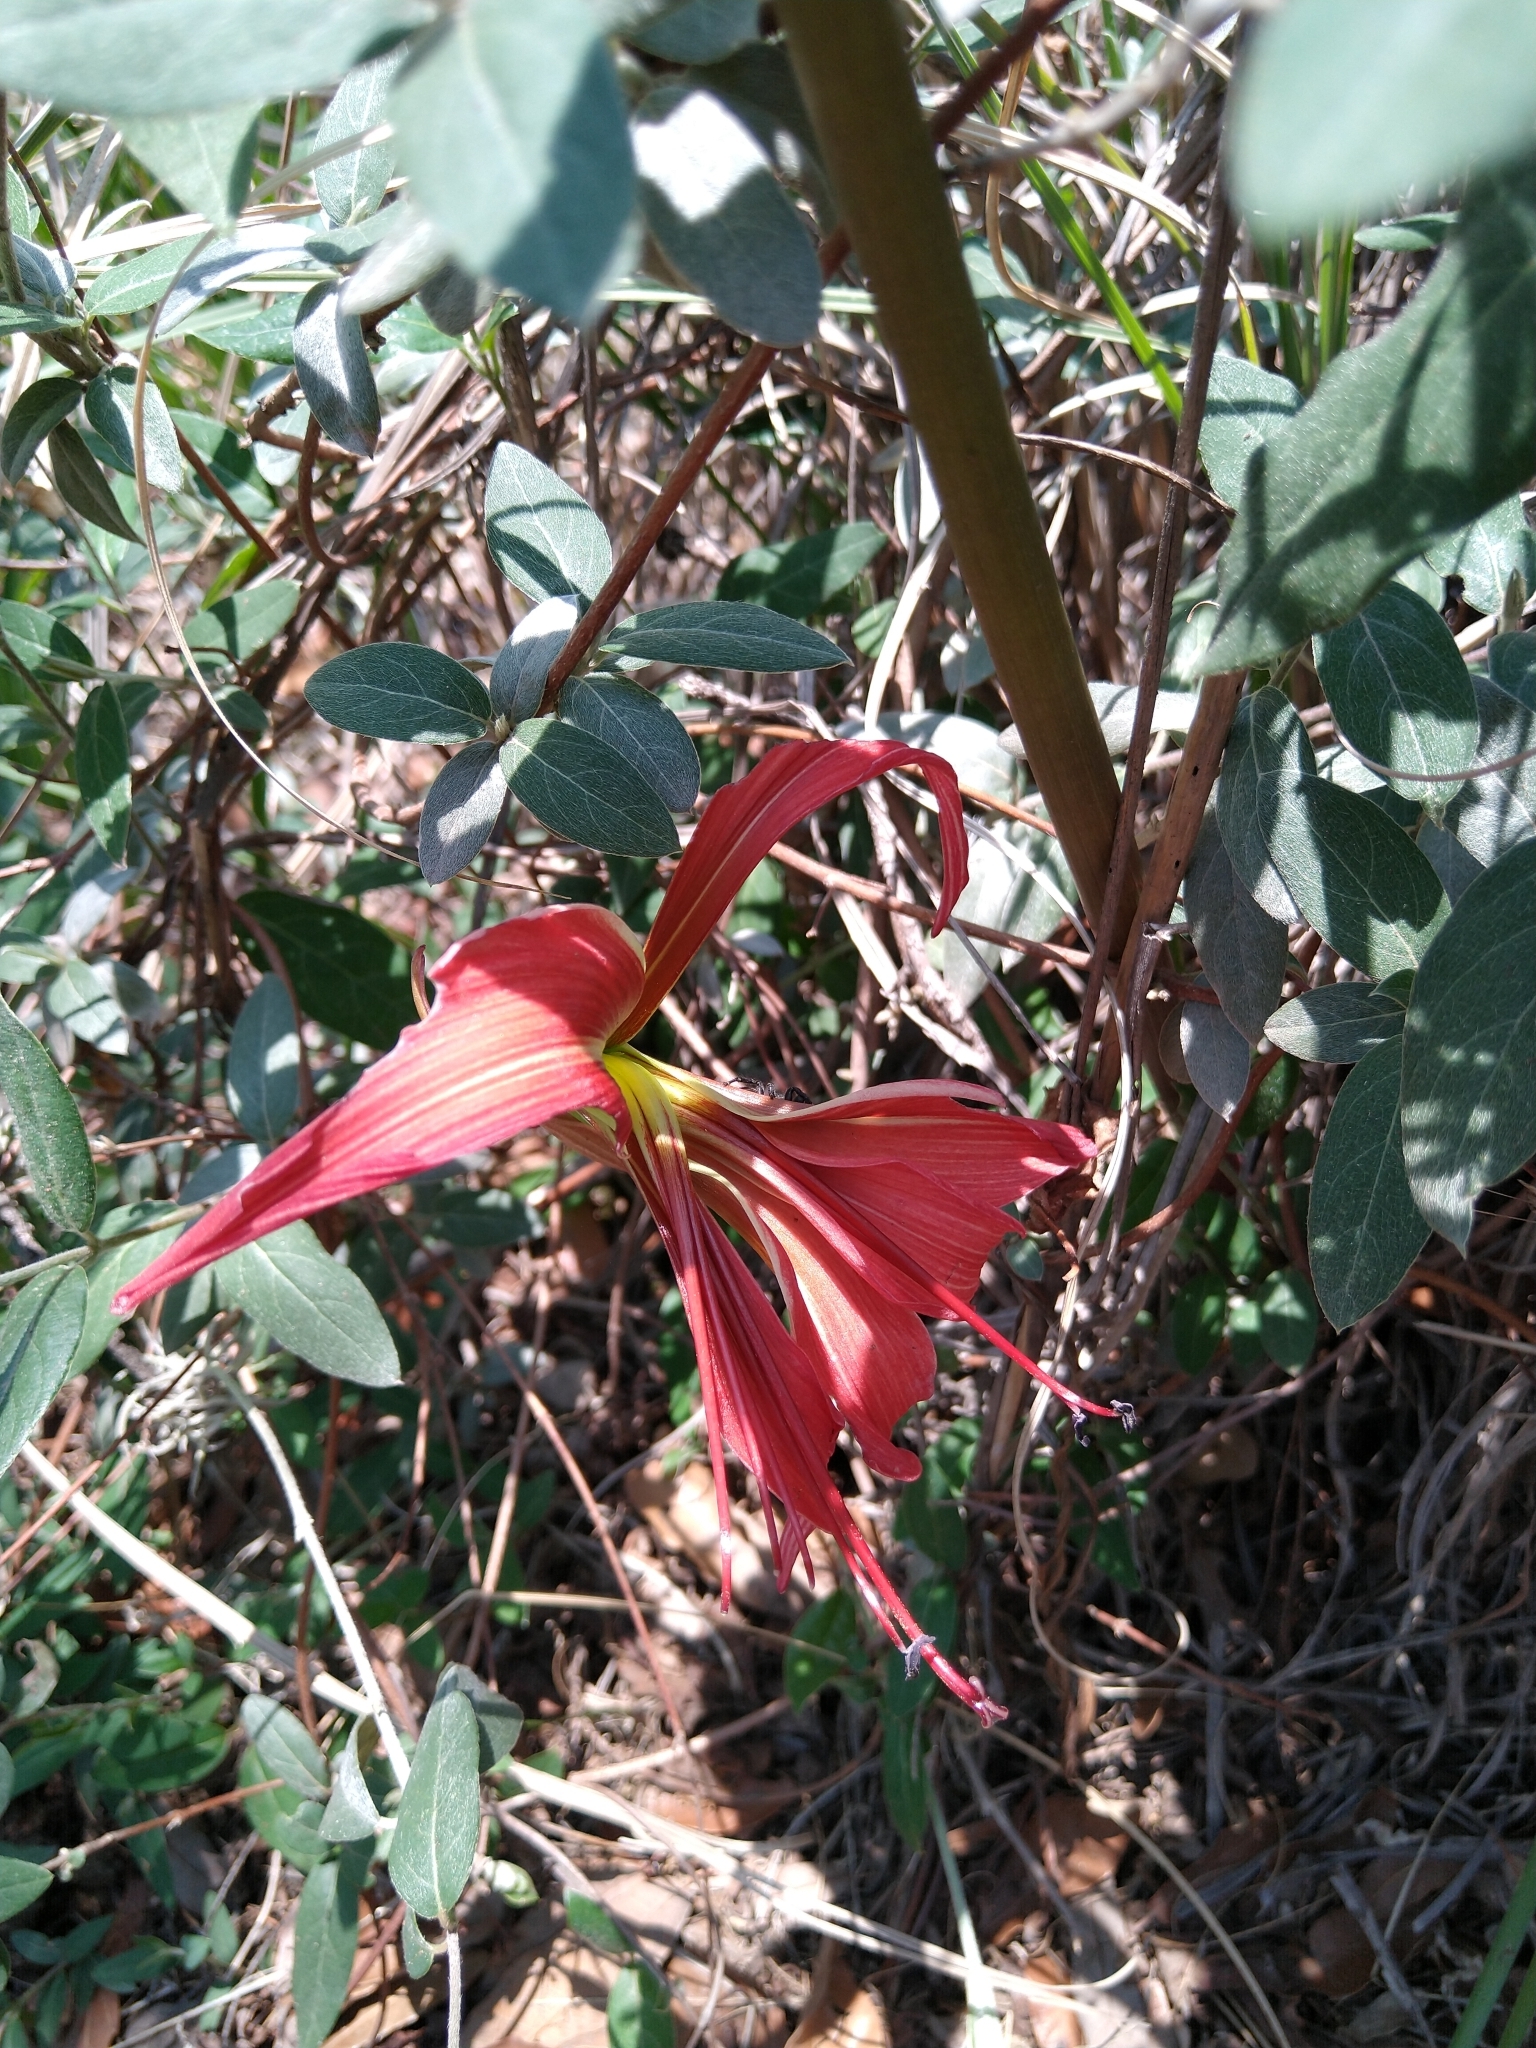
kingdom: Plantae
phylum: Tracheophyta
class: Liliopsida
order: Asparagales
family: Amaryllidaceae
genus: Sprekelia
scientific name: Sprekelia formosissima
